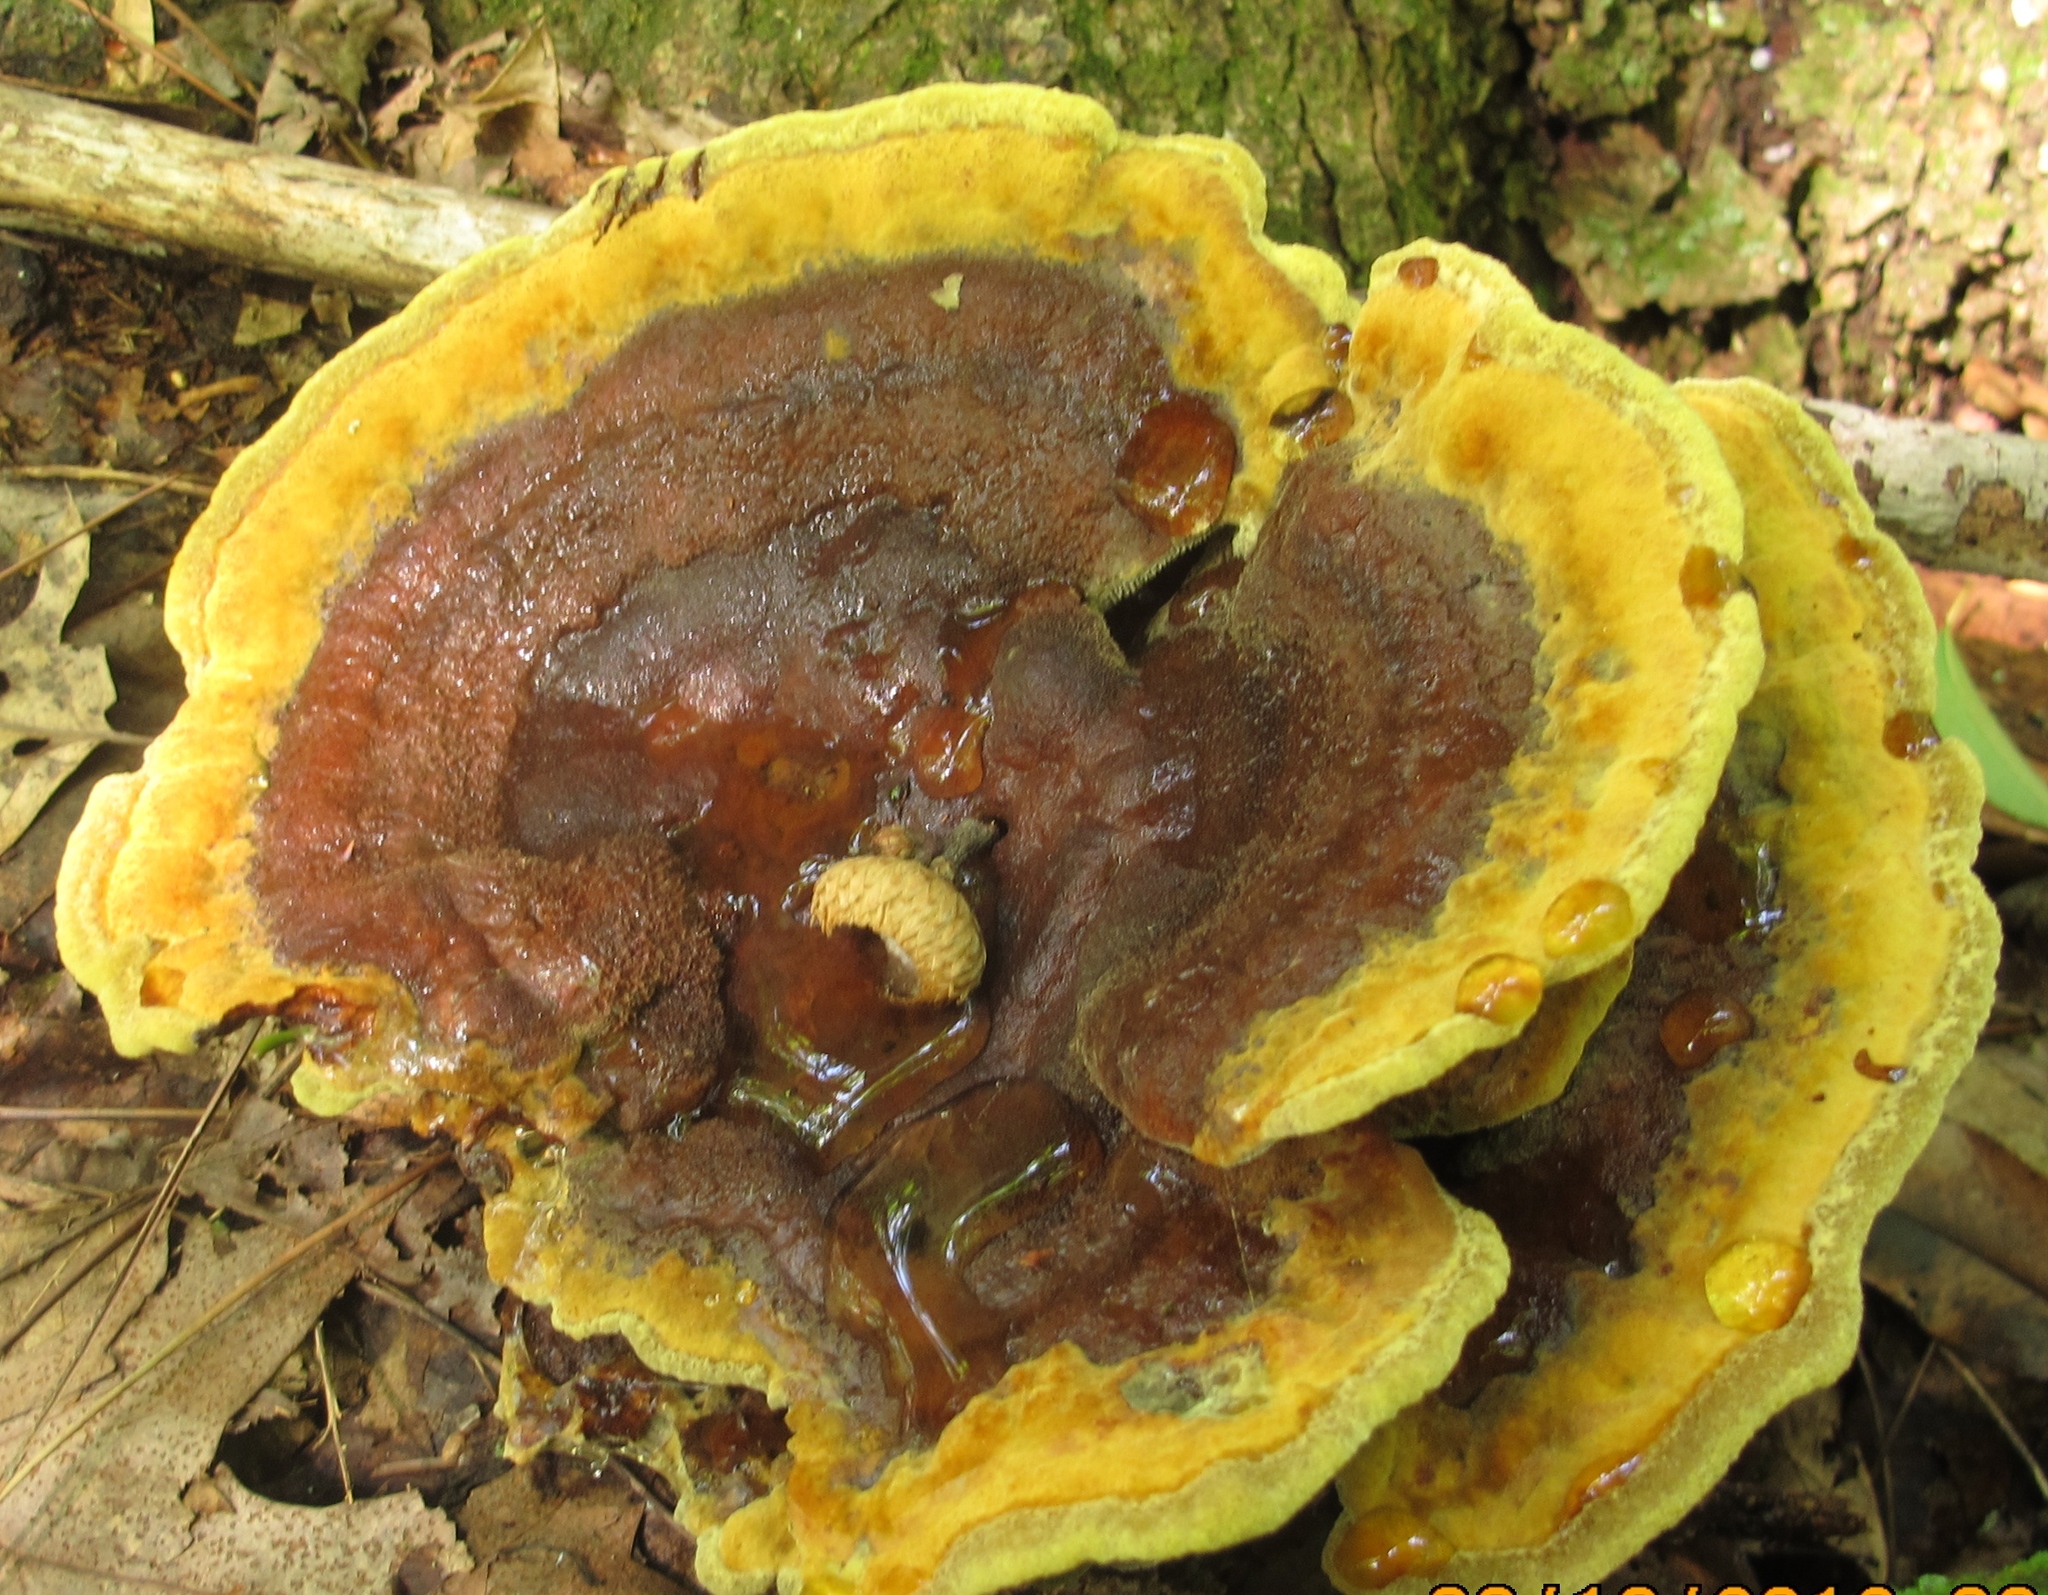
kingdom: Fungi
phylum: Basidiomycota
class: Agaricomycetes
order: Polyporales
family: Laetiporaceae
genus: Phaeolus
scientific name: Phaeolus schweinitzii
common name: Dyer's mazegill
